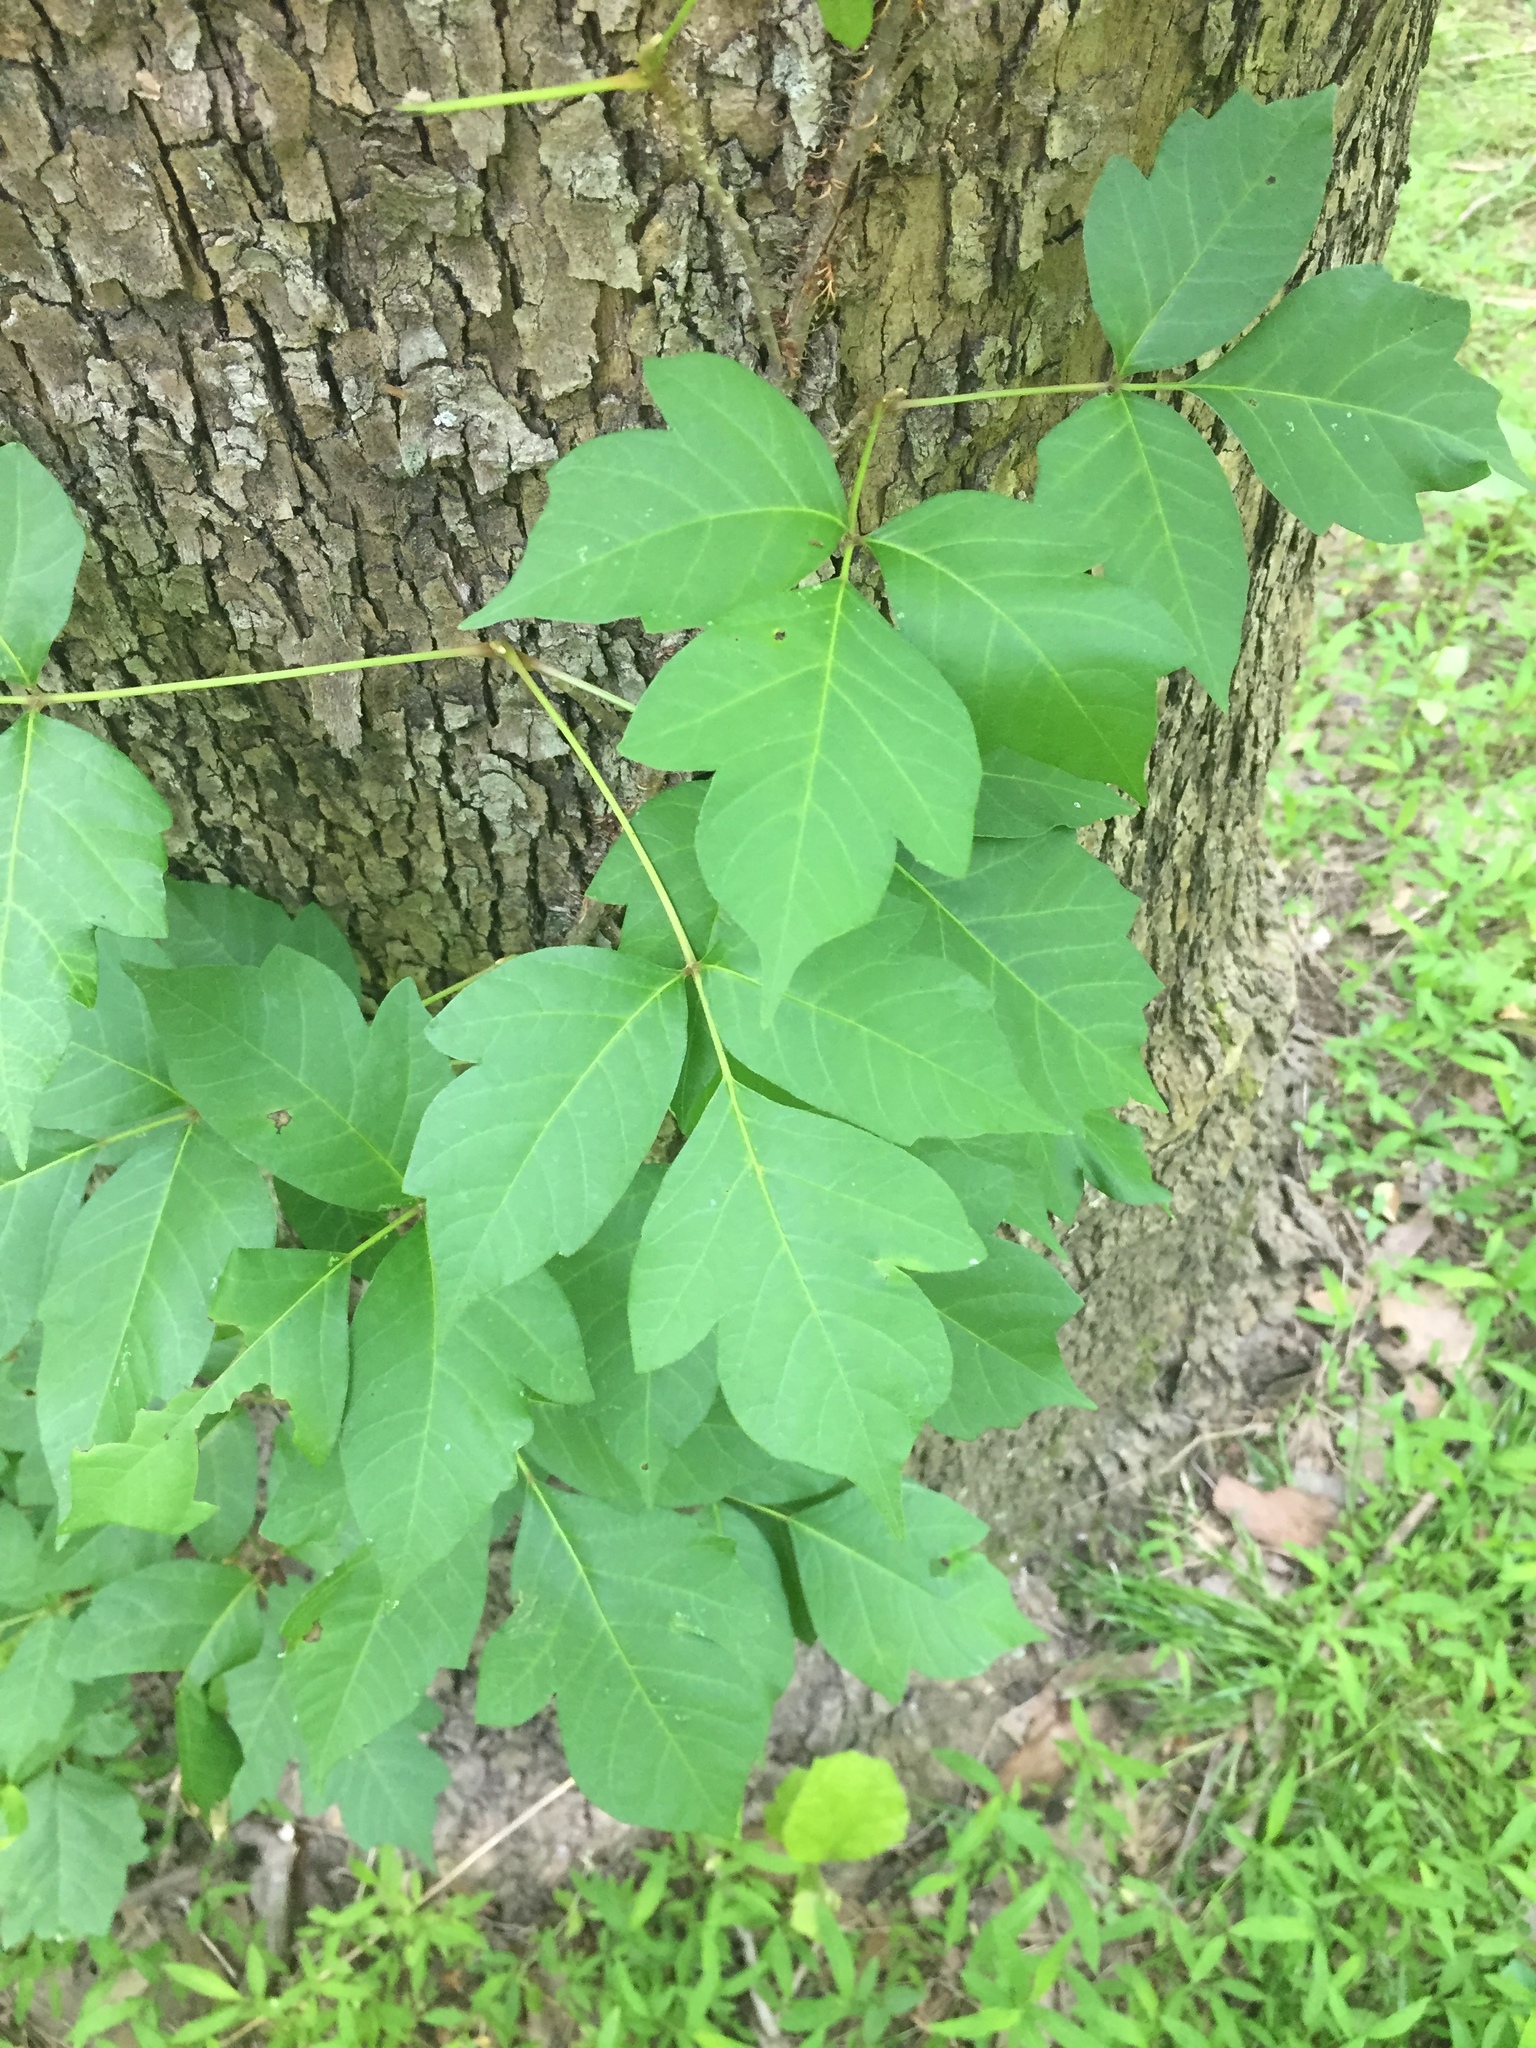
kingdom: Plantae
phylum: Tracheophyta
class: Magnoliopsida
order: Sapindales
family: Anacardiaceae
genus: Toxicodendron
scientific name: Toxicodendron radicans
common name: Poison ivy
